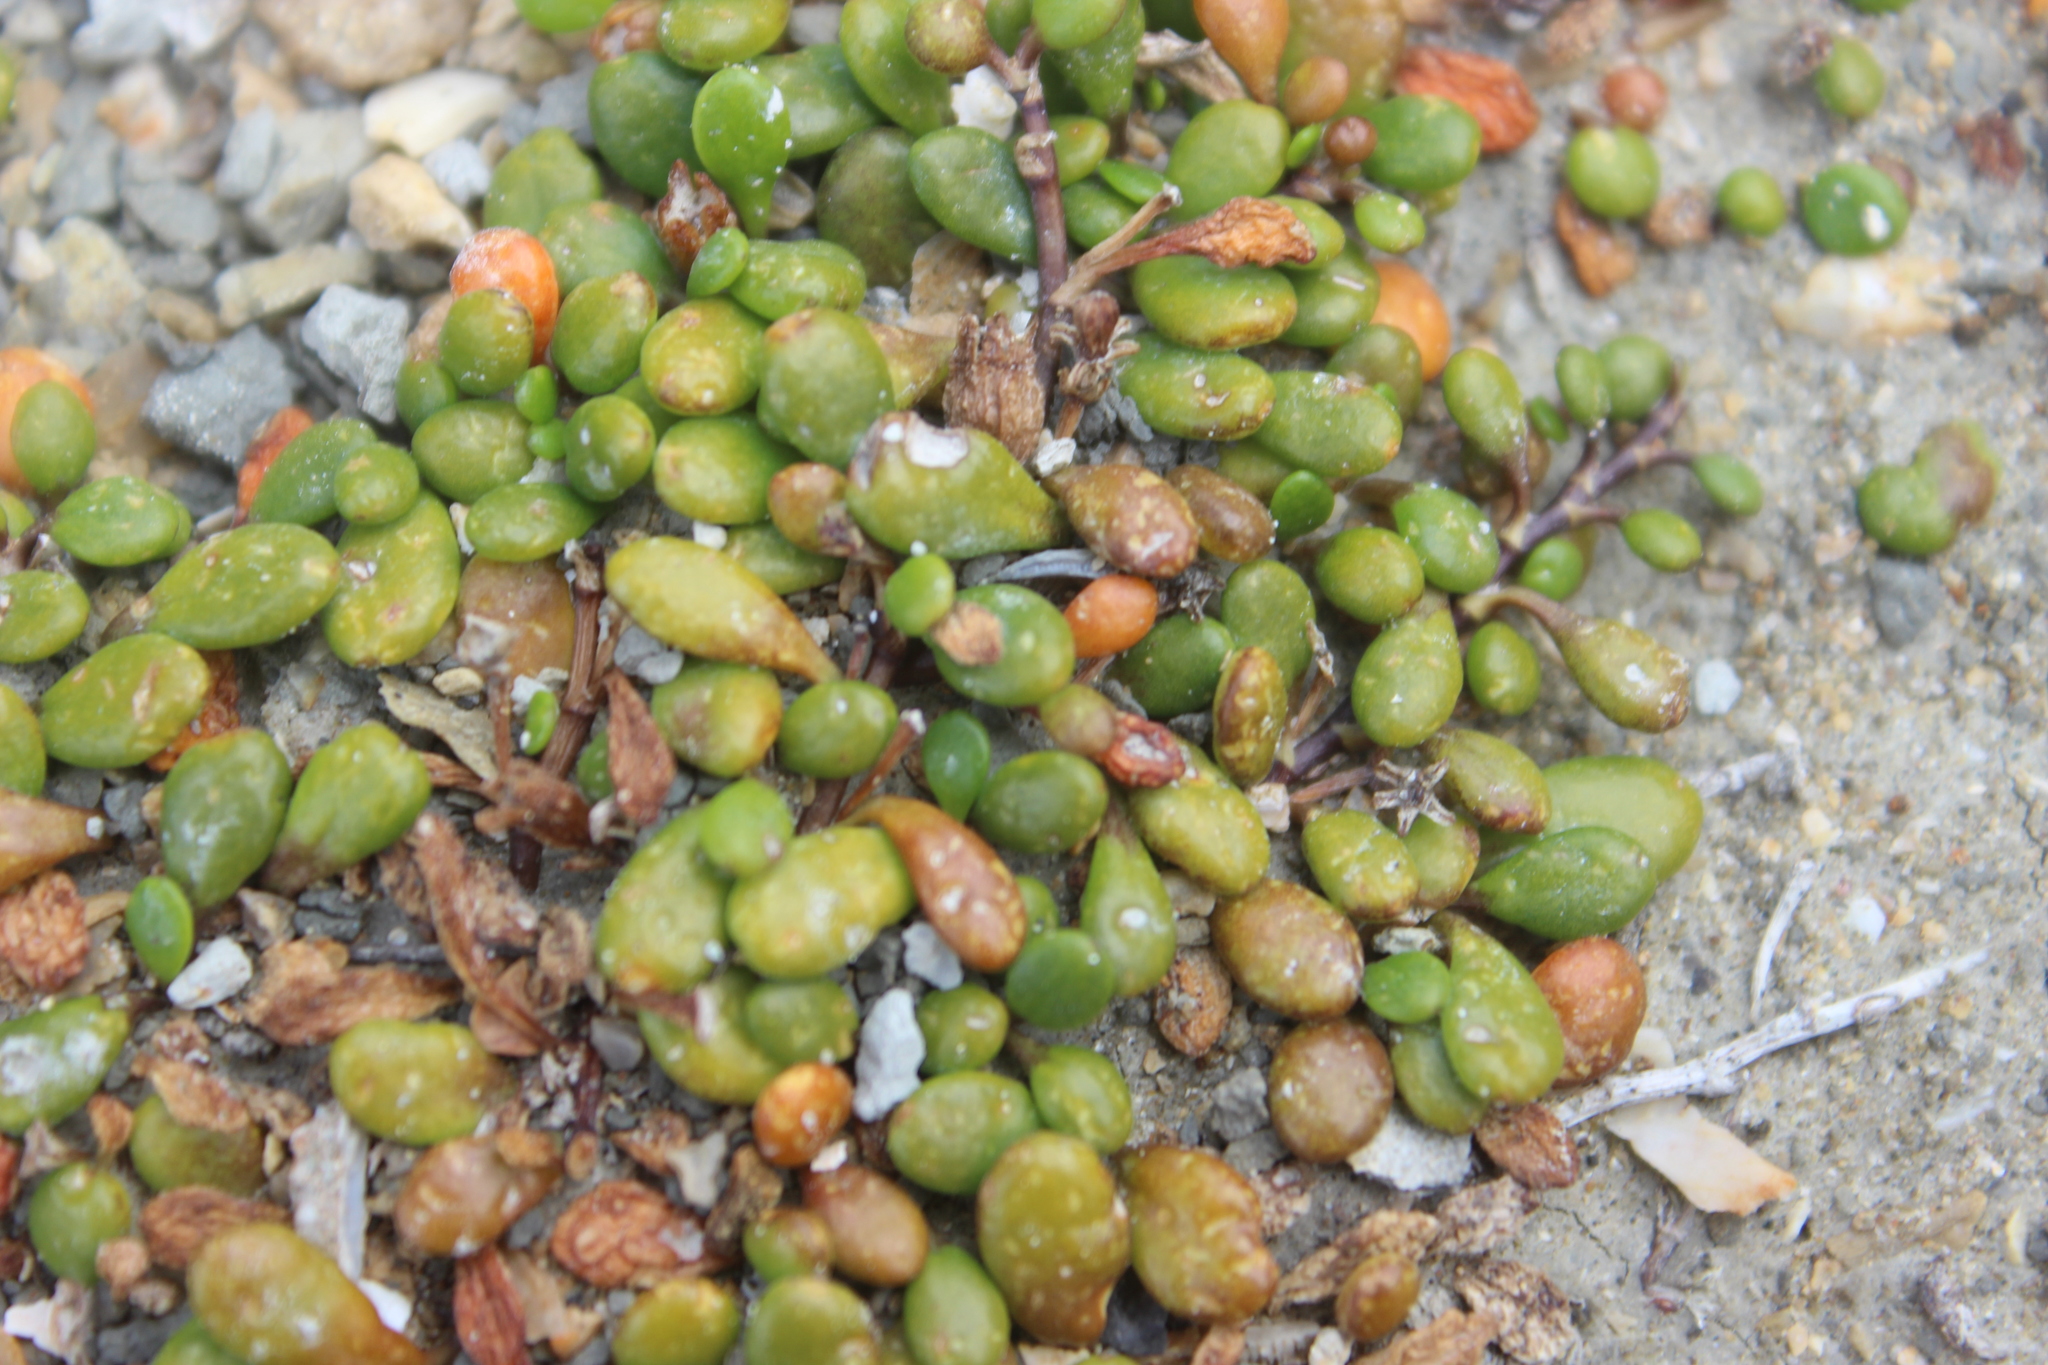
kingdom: Plantae
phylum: Tracheophyta
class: Magnoliopsida
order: Asterales
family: Goodeniaceae
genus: Goodenia
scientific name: Goodenia radicans
